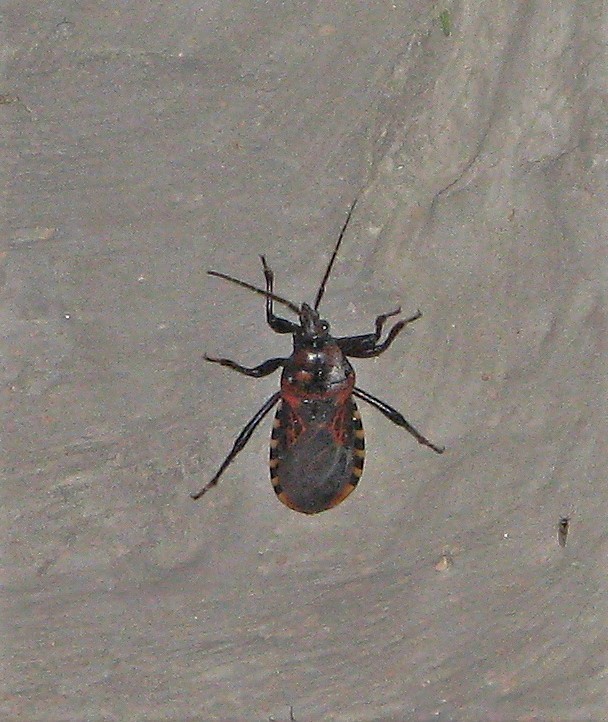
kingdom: Animalia
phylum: Arthropoda
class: Insecta
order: Hemiptera
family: Reduviidae
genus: Brontostoma
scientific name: Brontostoma colossus
